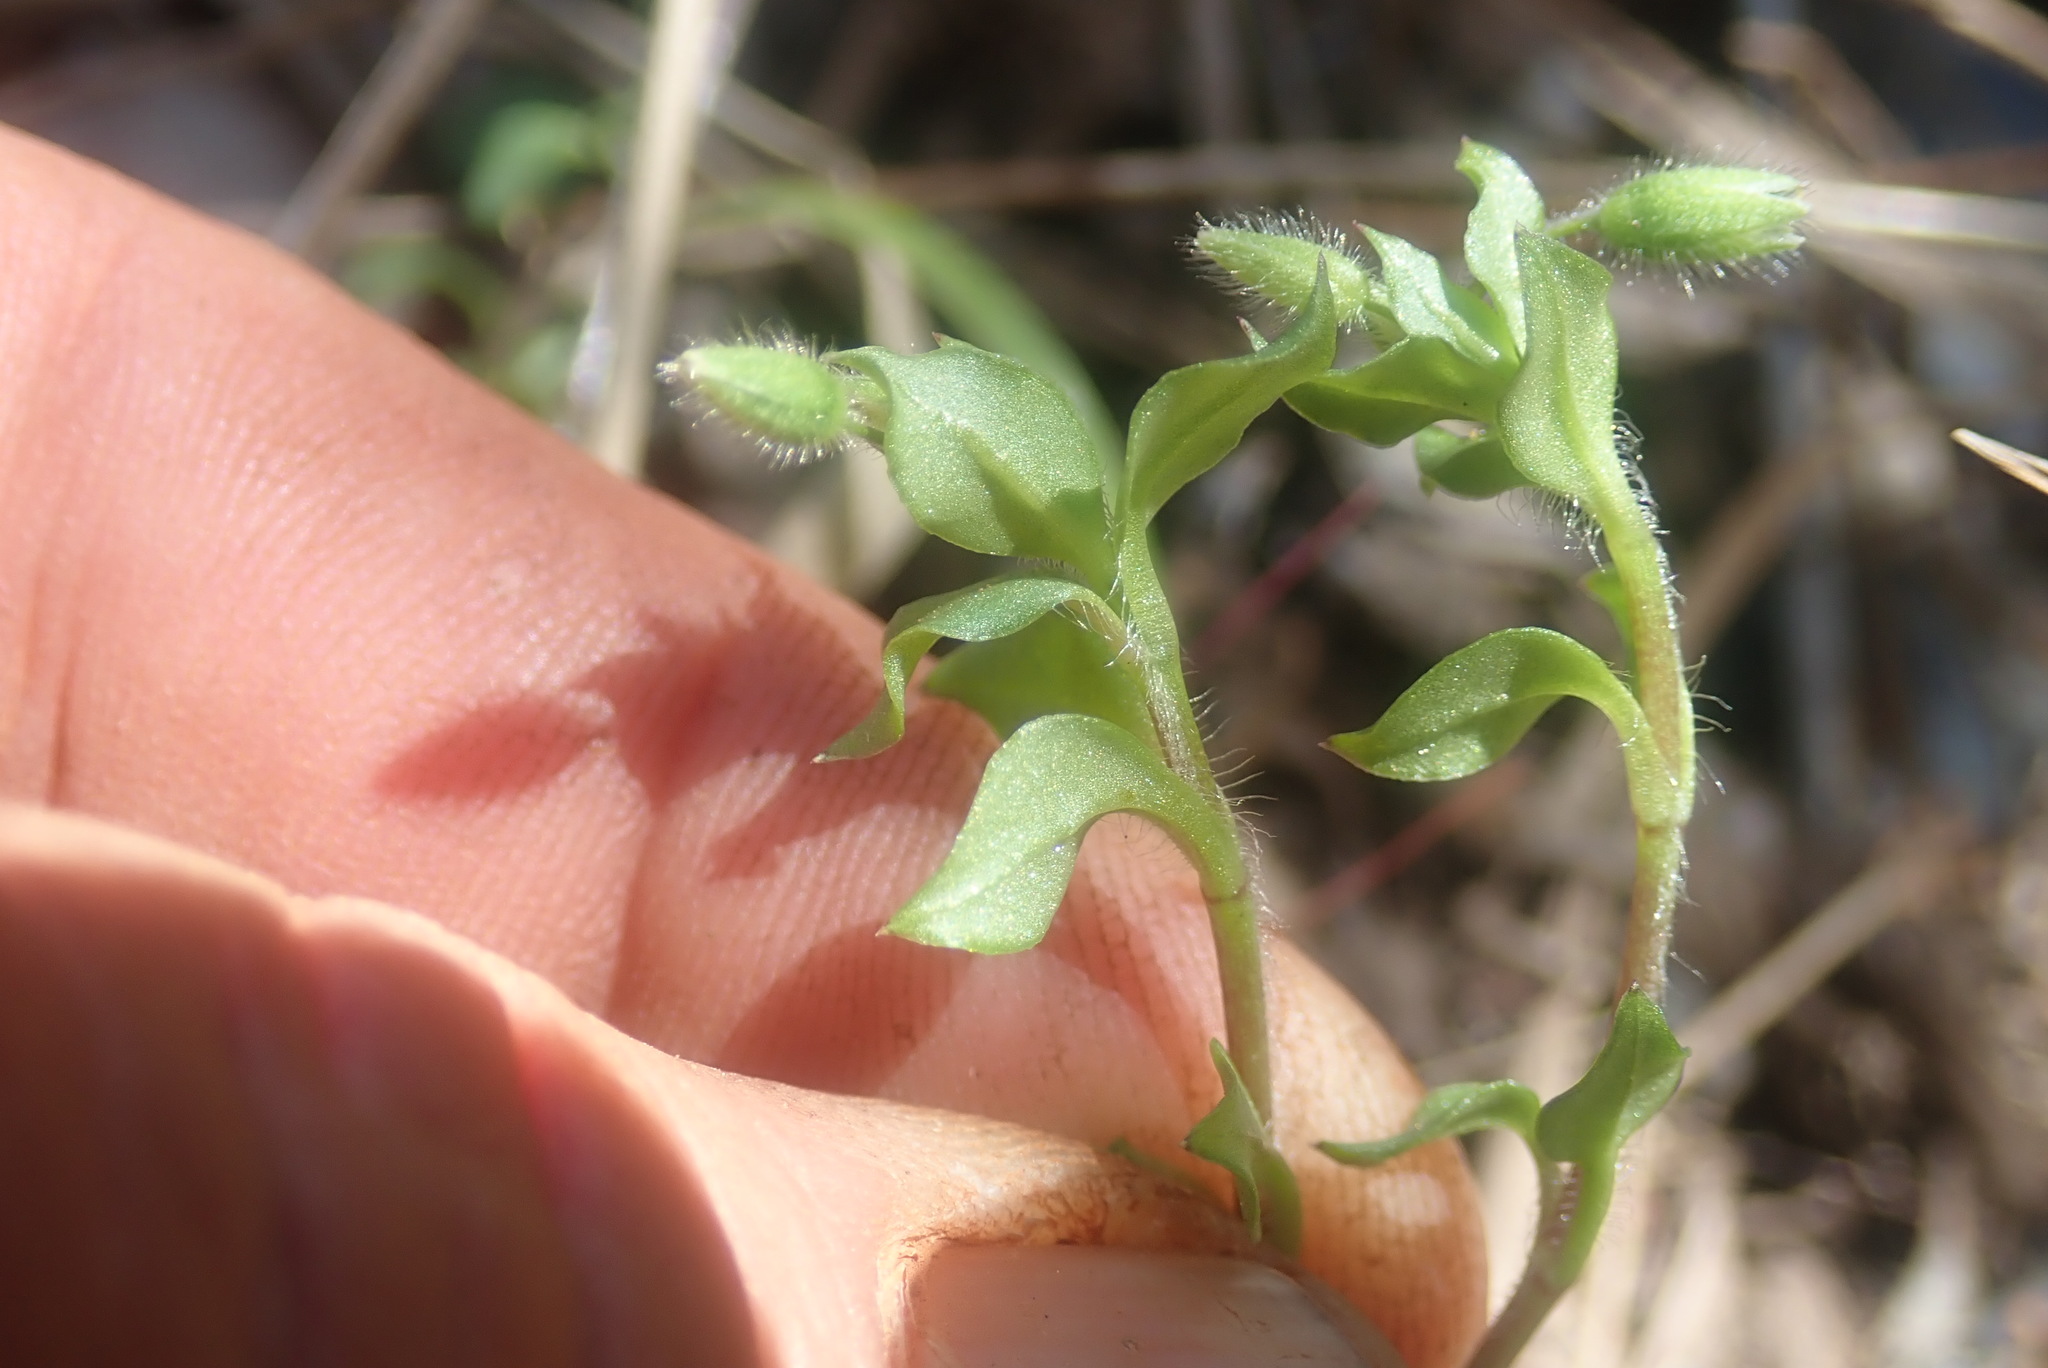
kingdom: Plantae
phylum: Tracheophyta
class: Magnoliopsida
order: Caryophyllales
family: Caryophyllaceae
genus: Stellaria
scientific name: Stellaria media
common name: Common chickweed
